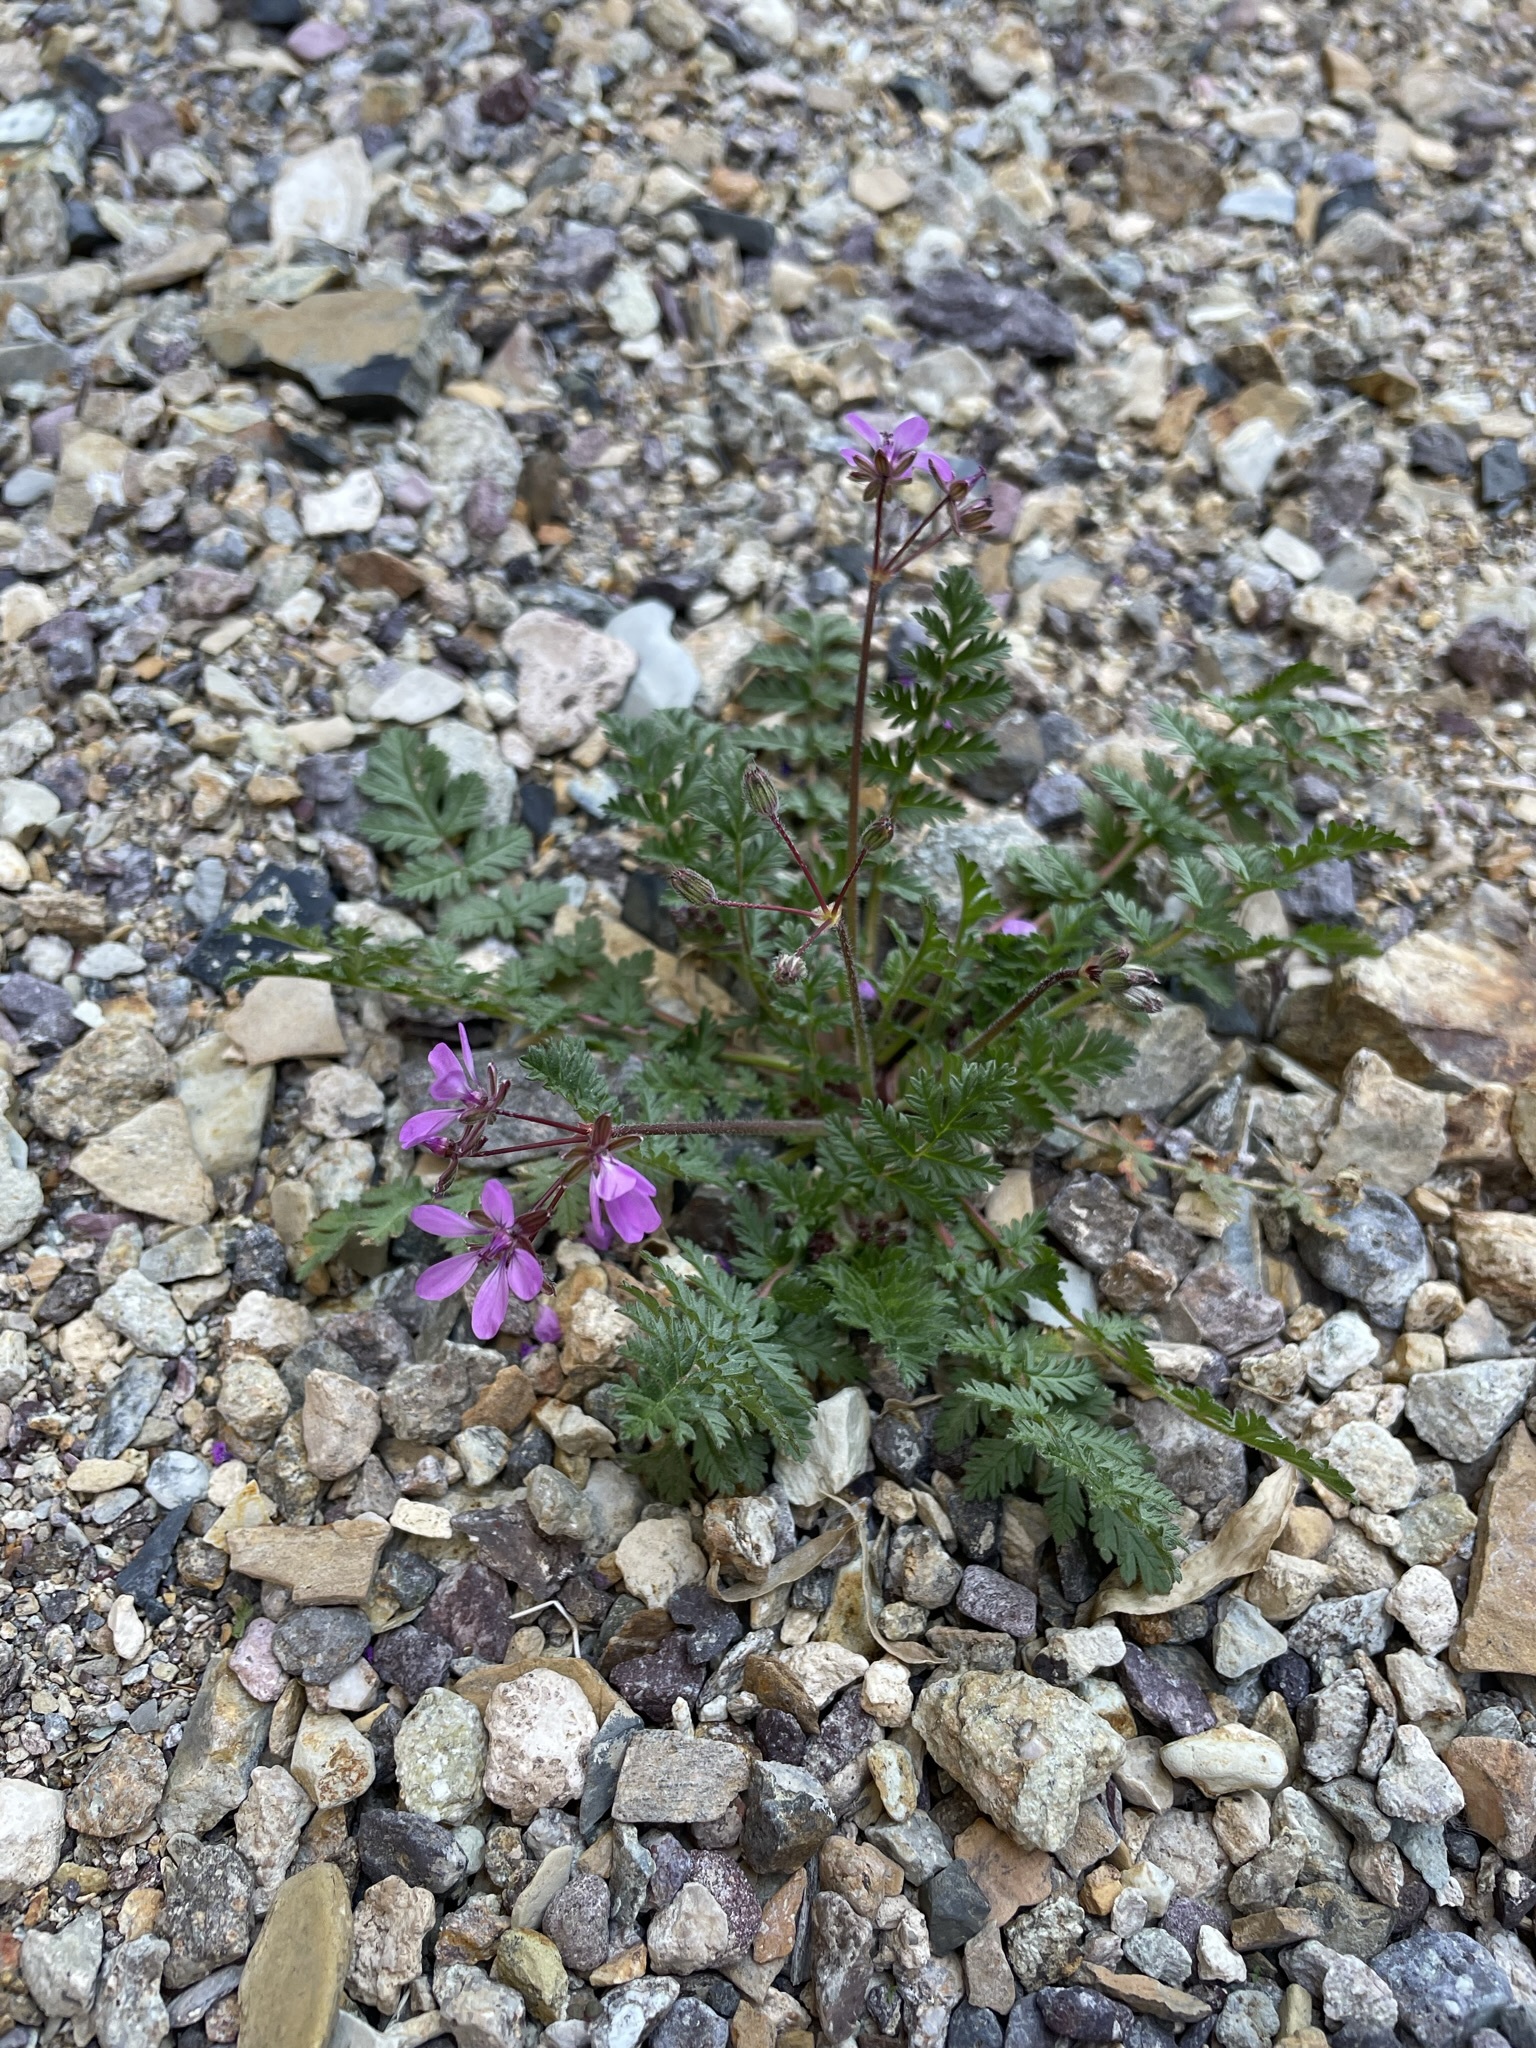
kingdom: Plantae
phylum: Tracheophyta
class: Magnoliopsida
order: Geraniales
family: Geraniaceae
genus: Erodium
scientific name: Erodium cicutarium
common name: Common stork's-bill
